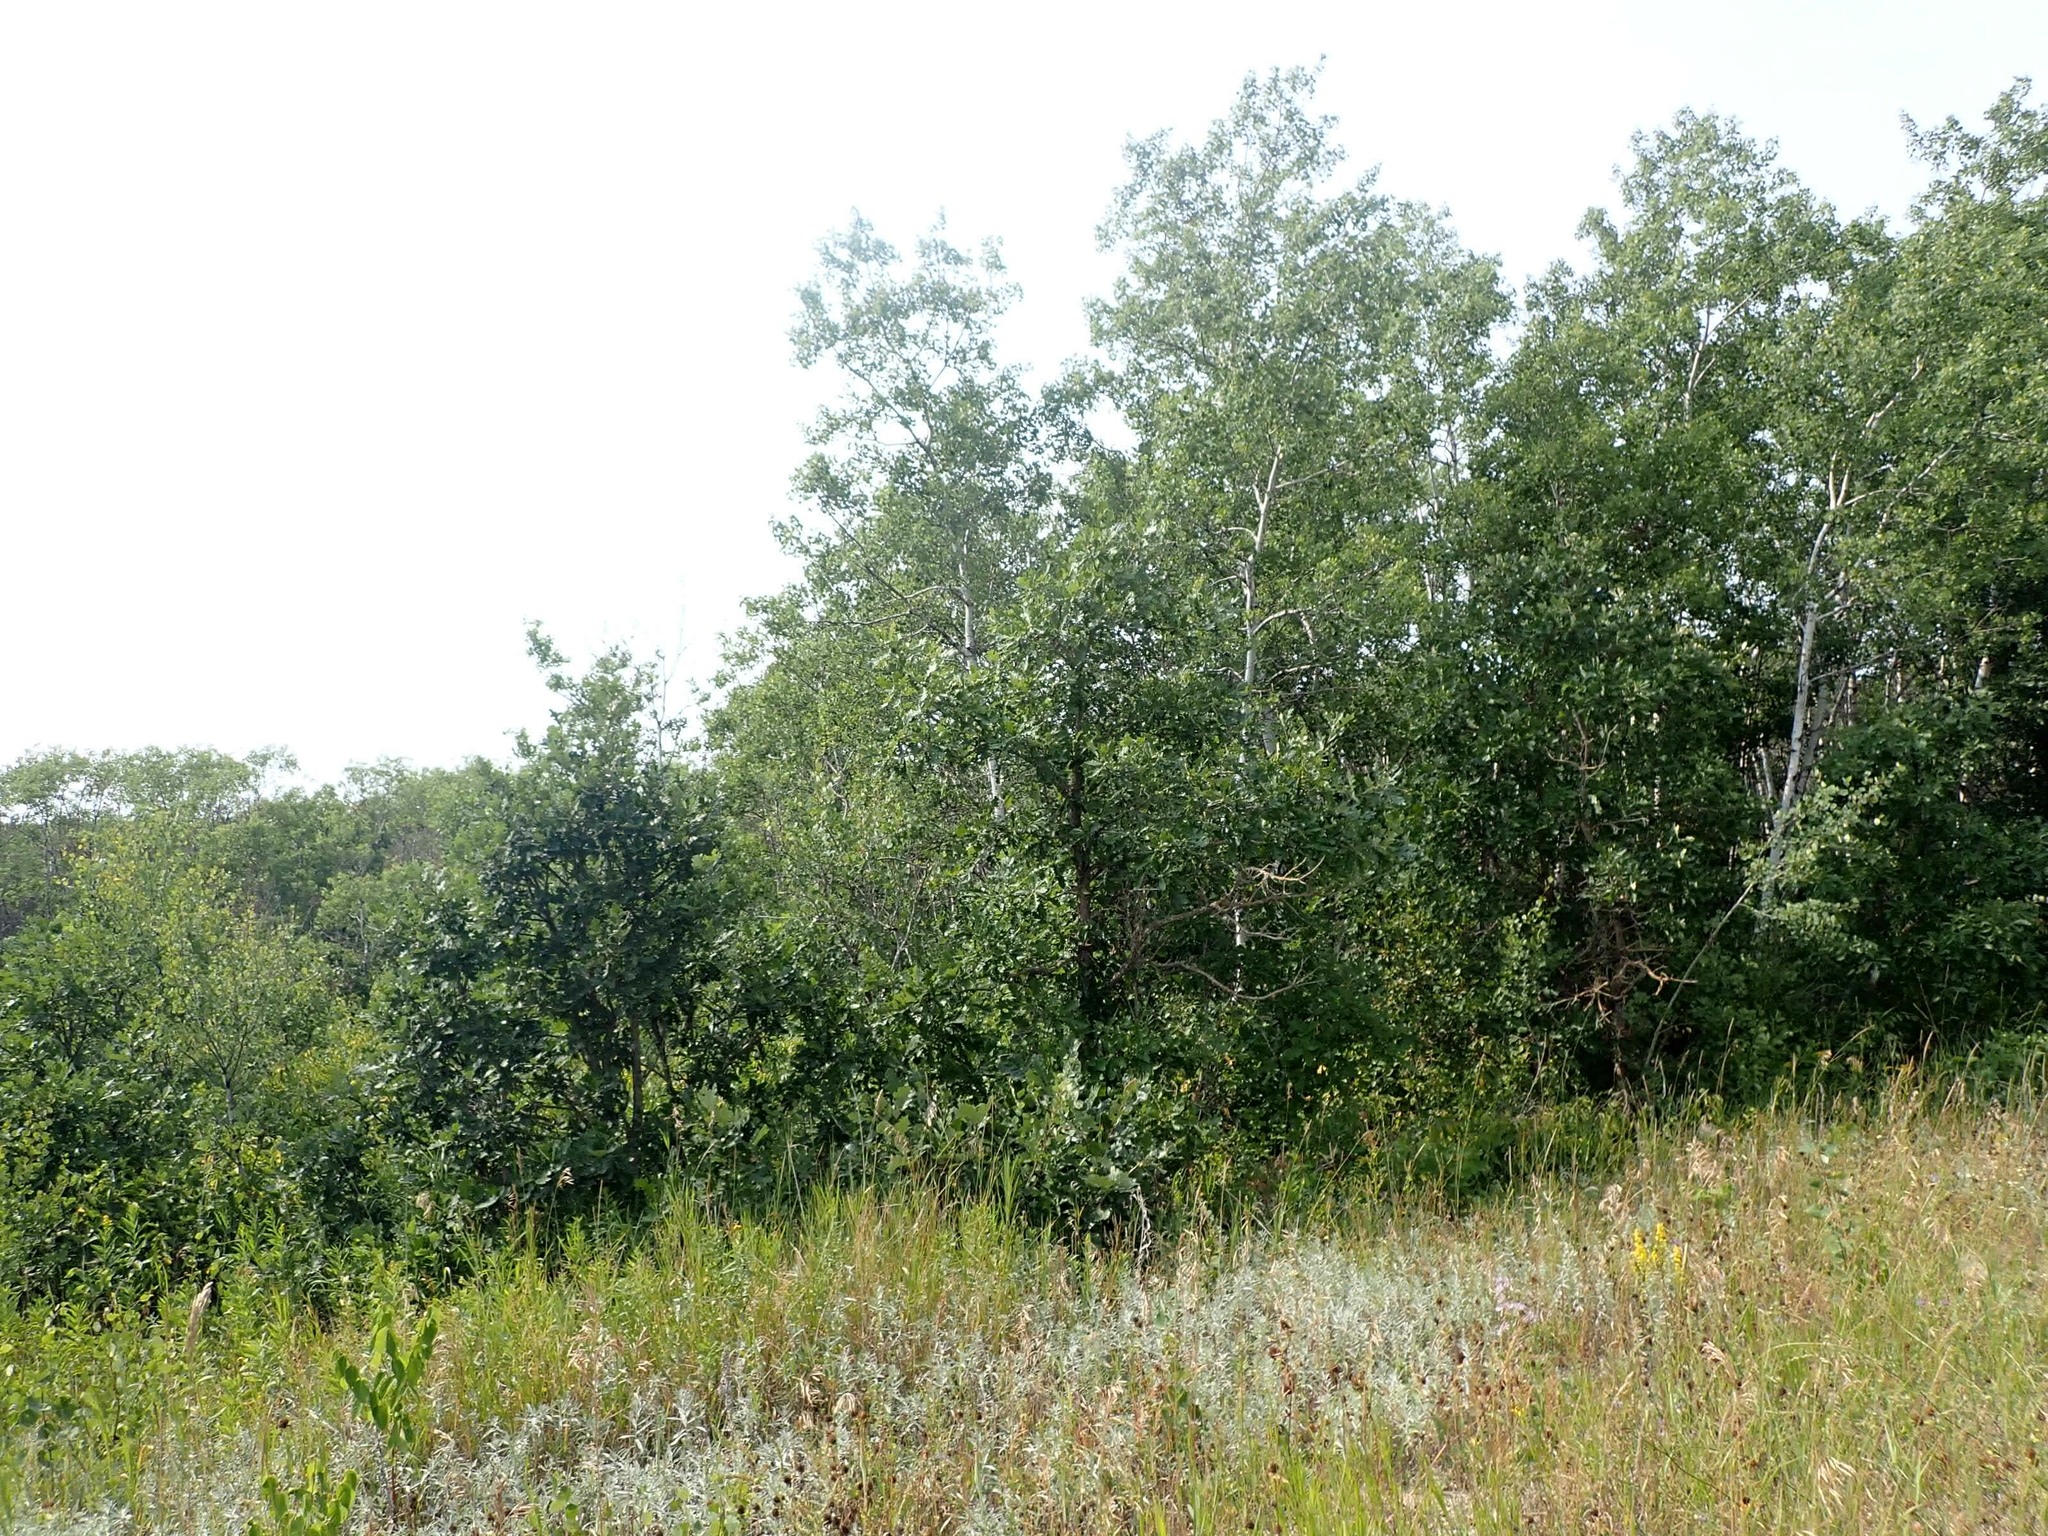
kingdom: Plantae
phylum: Tracheophyta
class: Magnoliopsida
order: Fagales
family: Fagaceae
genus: Quercus
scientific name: Quercus macrocarpa
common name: Bur oak
